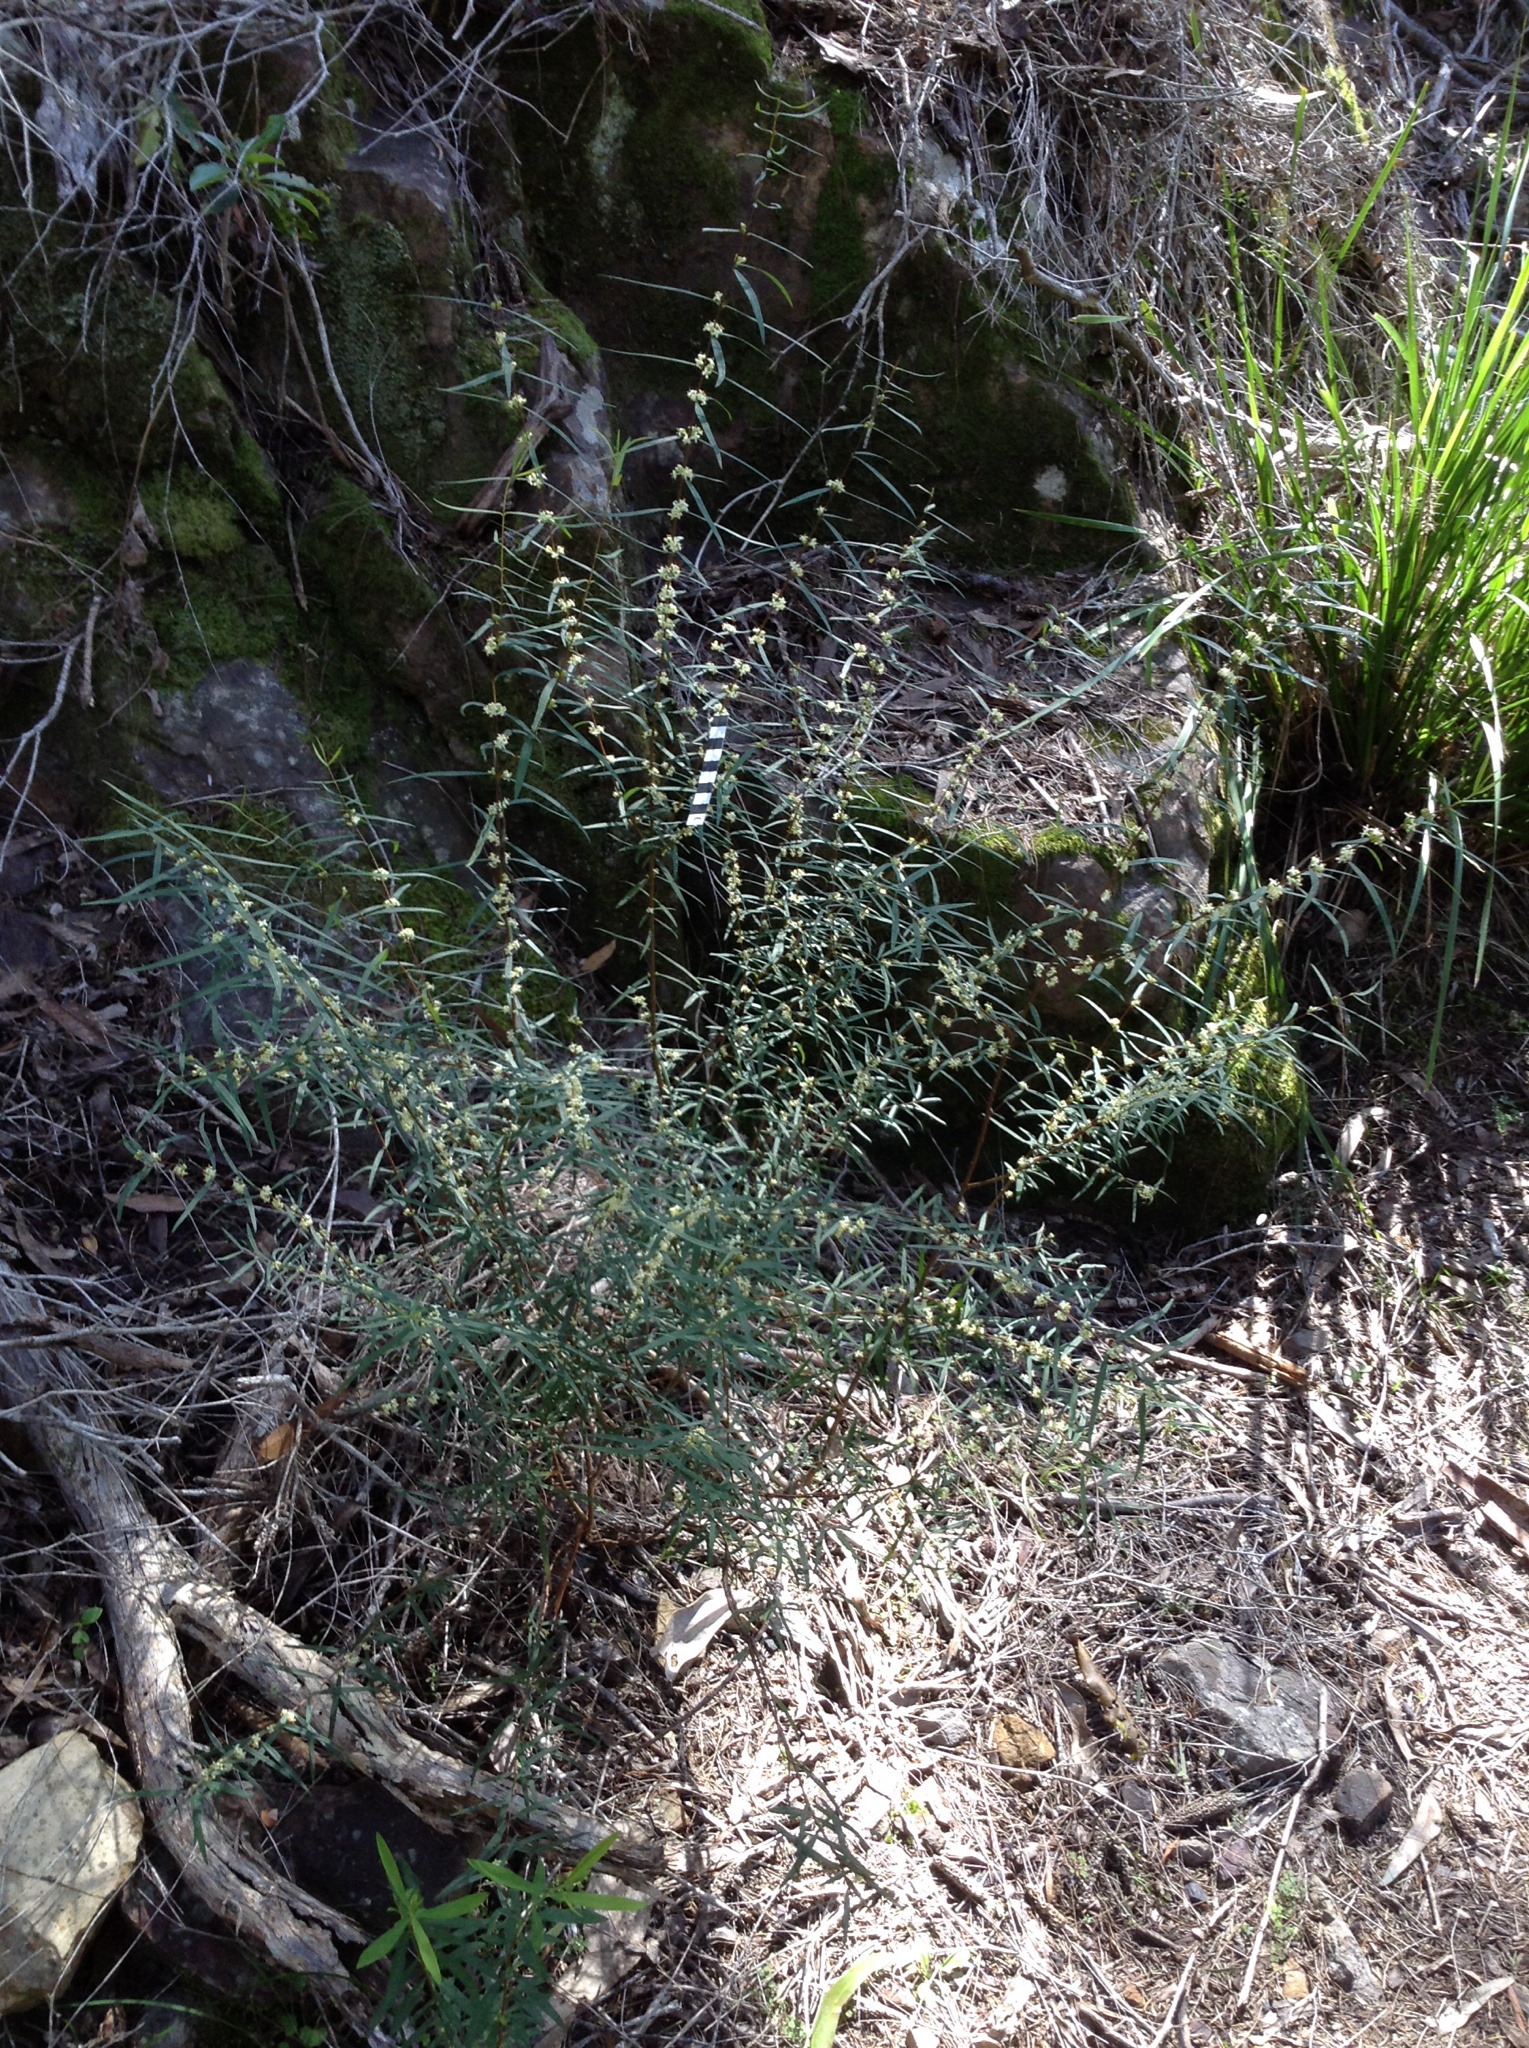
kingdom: Plantae
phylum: Tracheophyta
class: Magnoliopsida
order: Malvales
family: Thymelaeaceae
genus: Pimelea
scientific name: Pimelea axiflora
